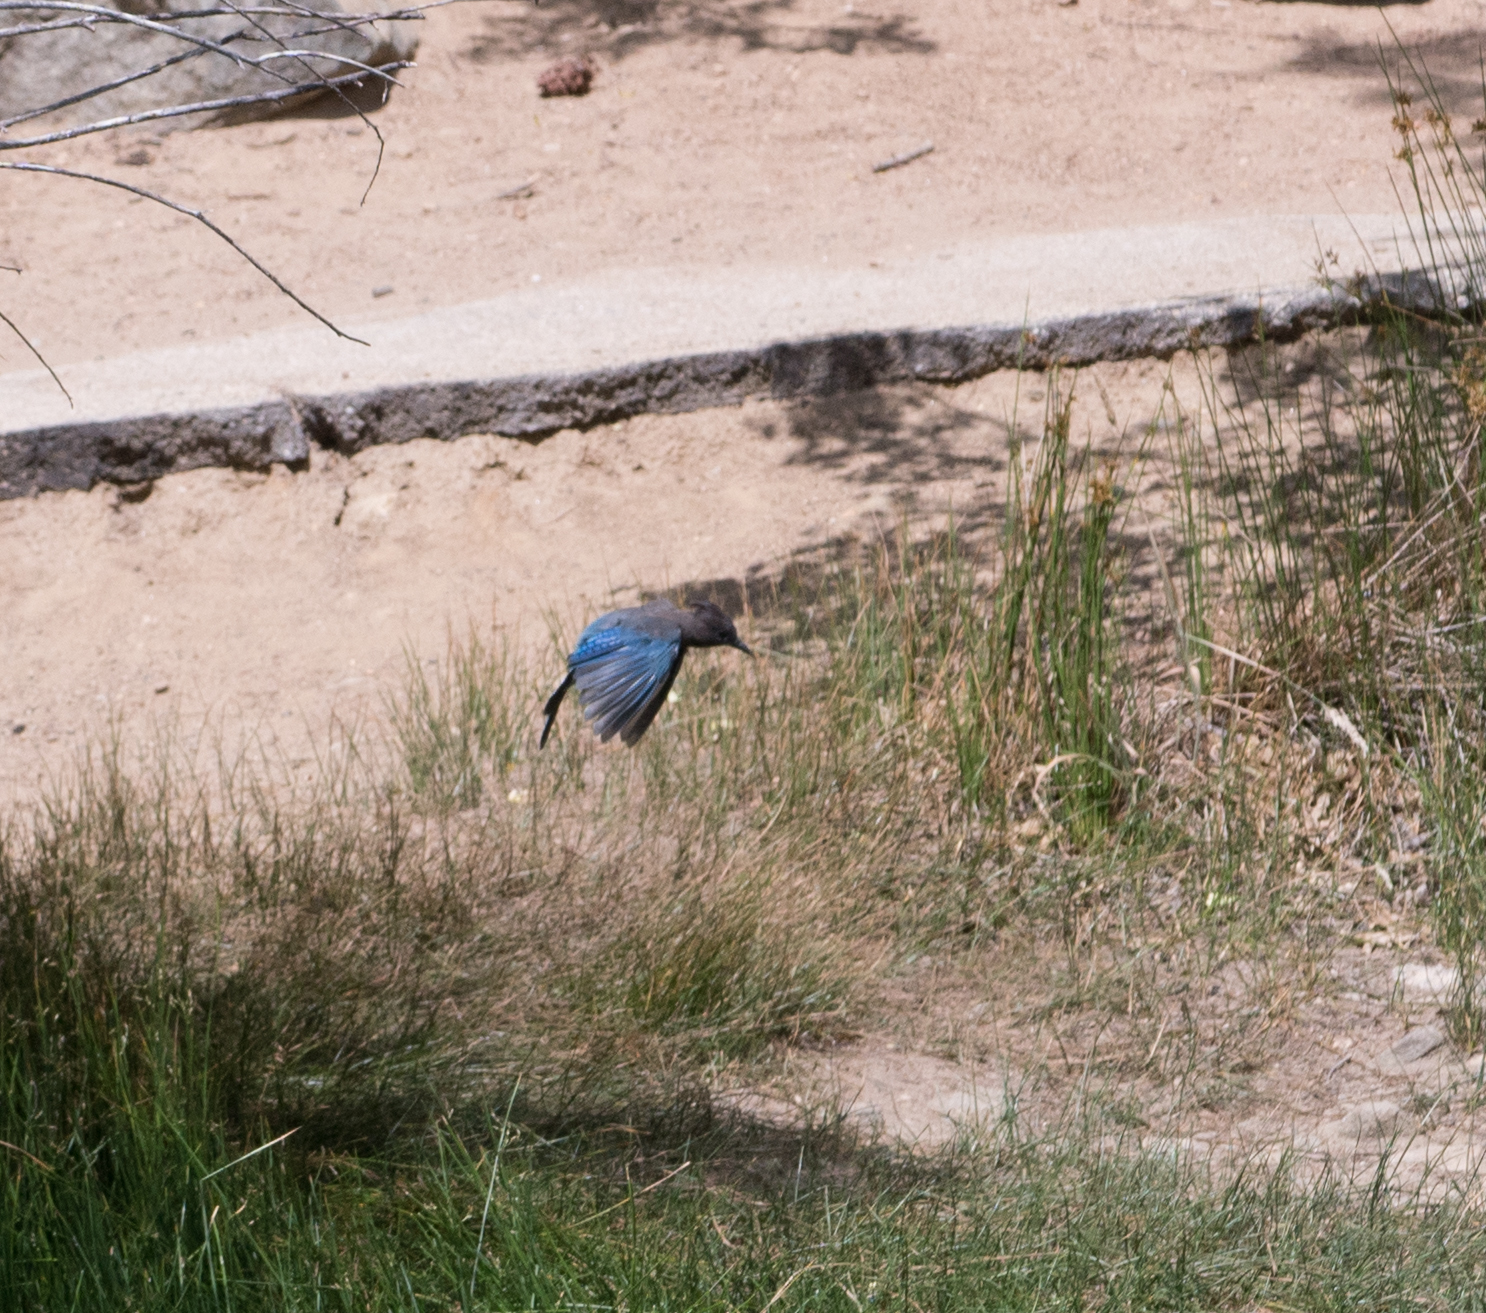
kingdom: Animalia
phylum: Chordata
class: Aves
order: Passeriformes
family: Corvidae
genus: Cyanocitta
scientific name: Cyanocitta stelleri
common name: Steller's jay
